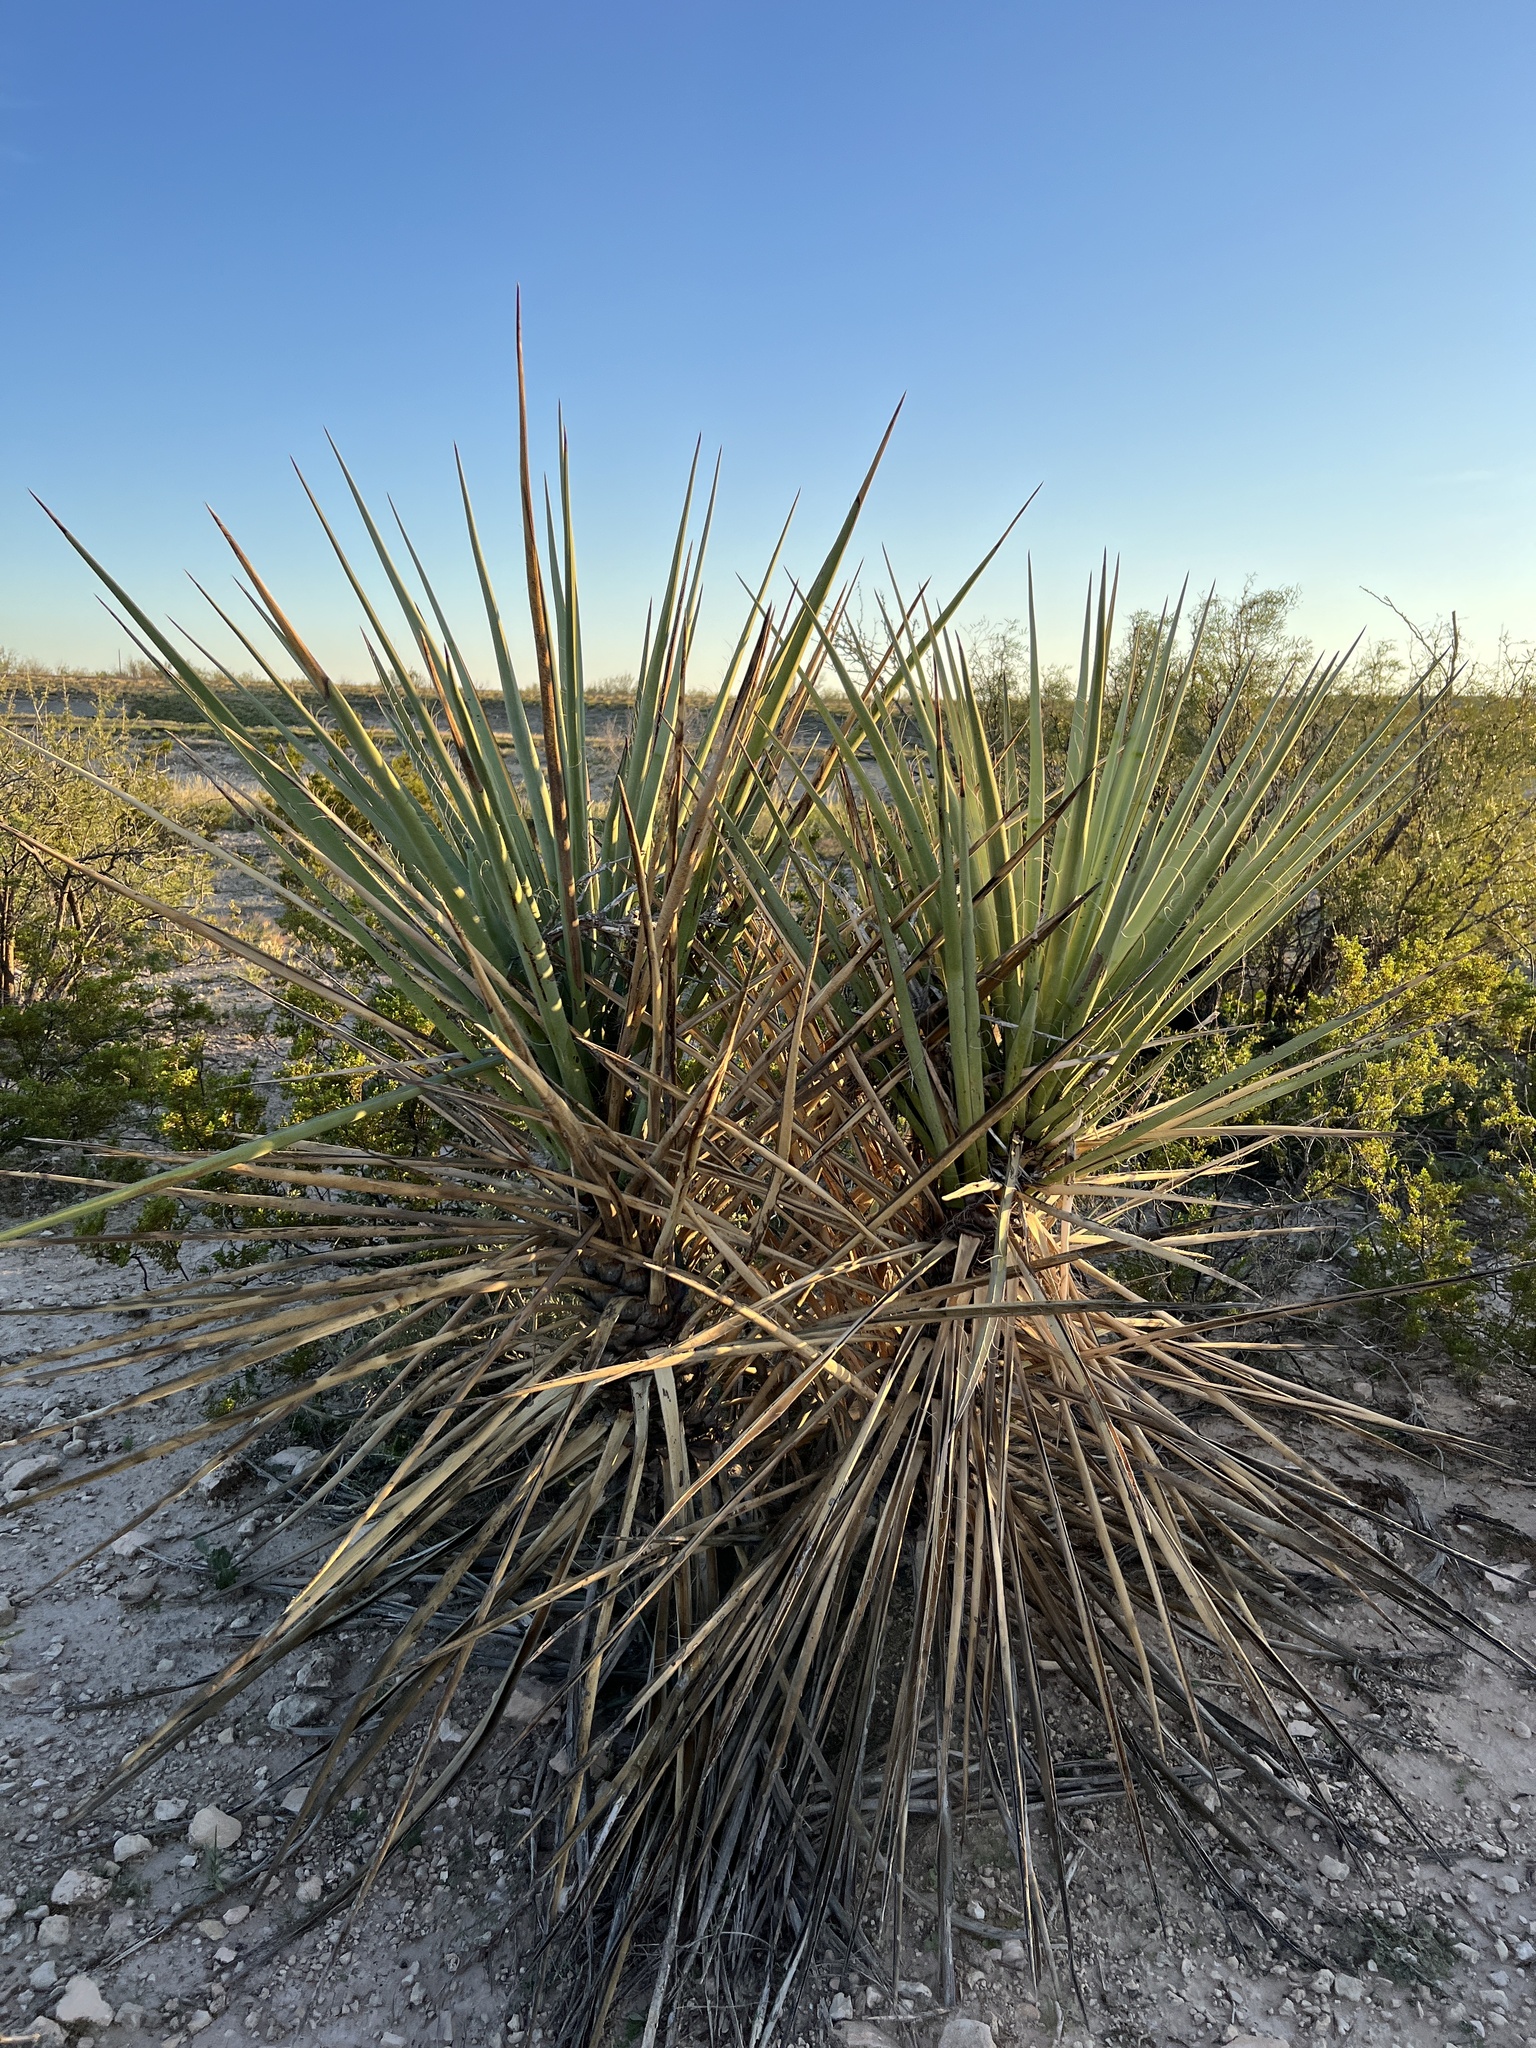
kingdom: Plantae
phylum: Tracheophyta
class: Liliopsida
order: Asparagales
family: Asparagaceae
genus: Yucca
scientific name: Yucca treculiana
